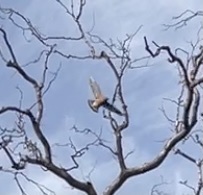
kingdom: Animalia
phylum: Chordata
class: Aves
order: Accipitriformes
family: Accipitridae
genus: Buteo
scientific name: Buteo lineatus
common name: Red-shouldered hawk
